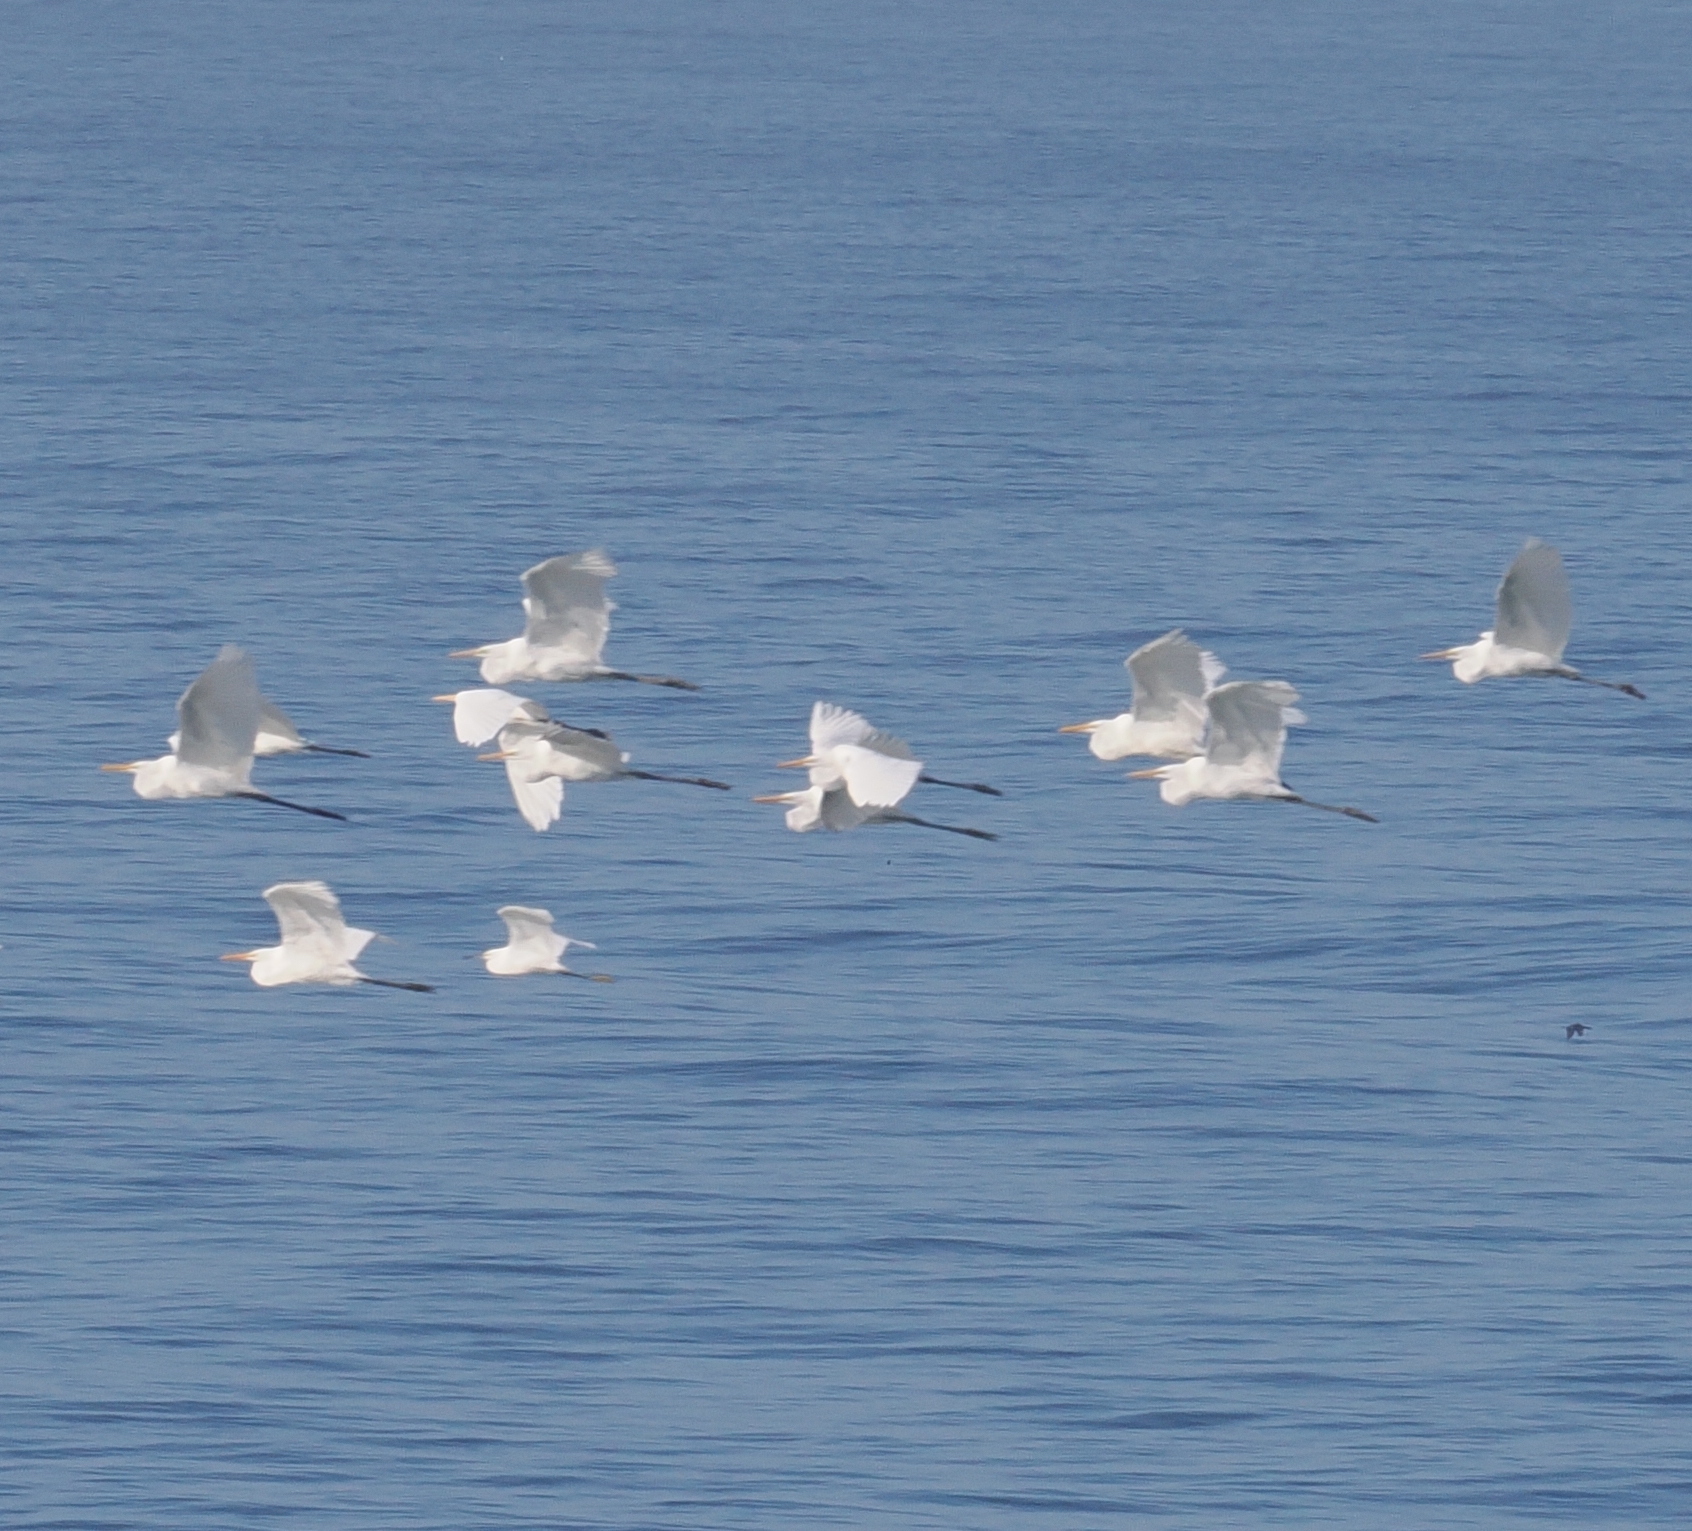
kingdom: Animalia
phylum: Chordata
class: Aves
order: Pelecaniformes
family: Ardeidae
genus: Ardea
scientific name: Ardea alba
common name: Great egret
